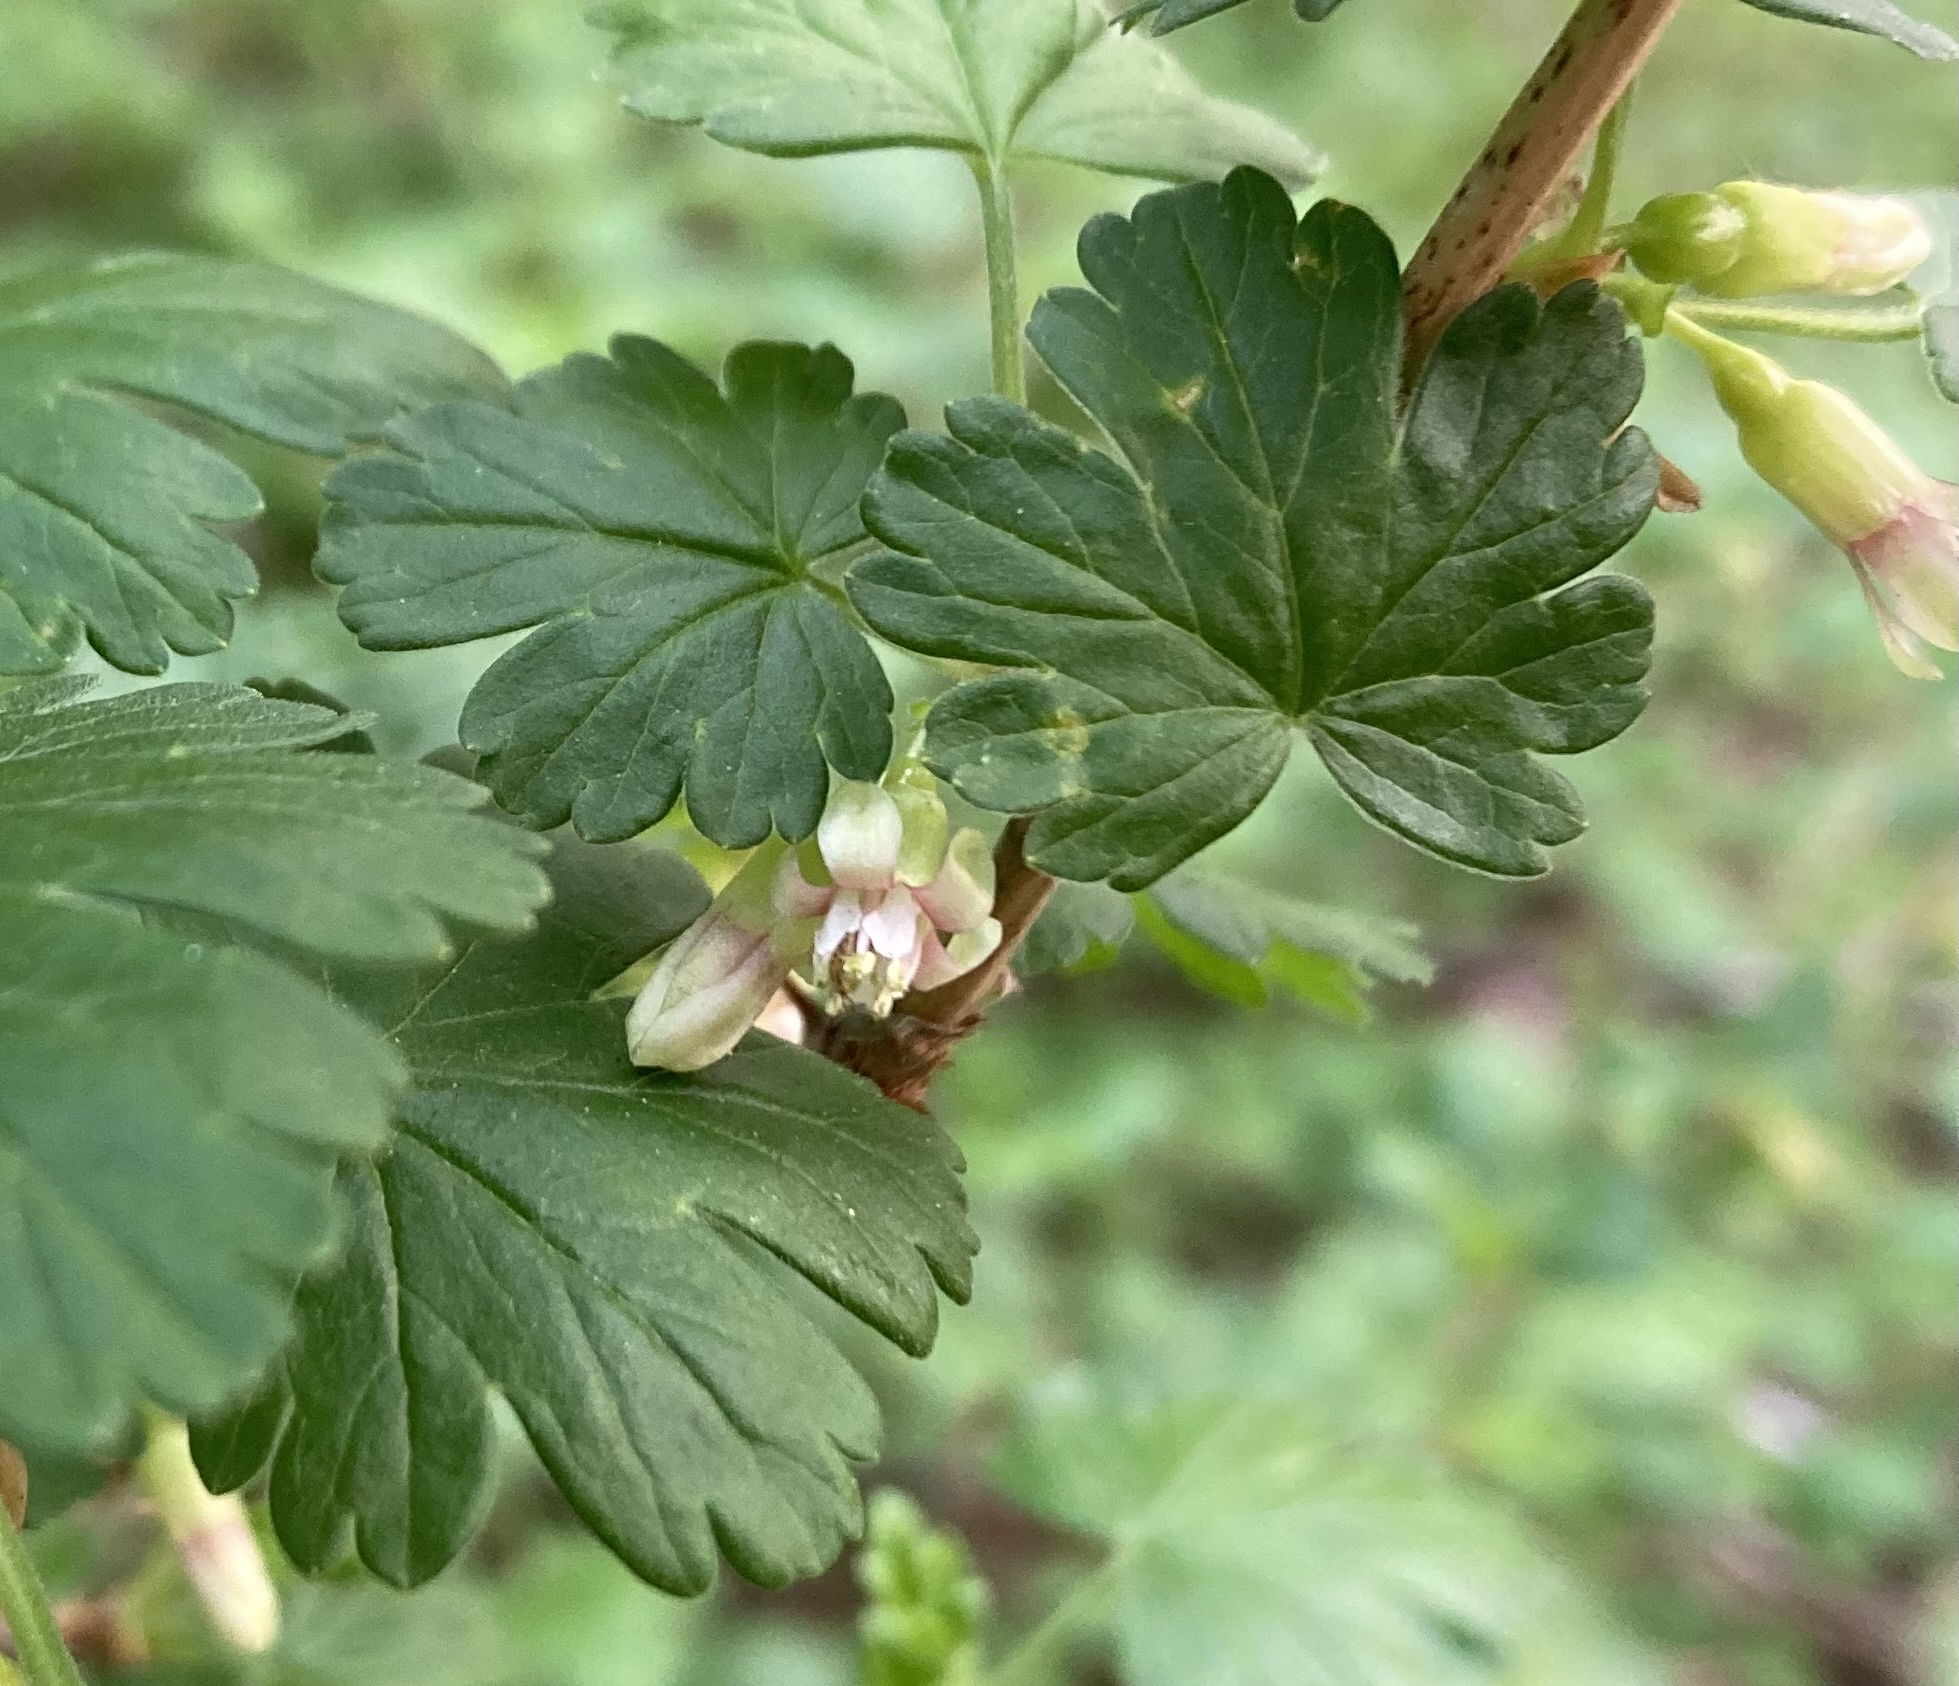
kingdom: Plantae
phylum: Tracheophyta
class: Magnoliopsida
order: Saxifragales
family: Grossulariaceae
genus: Ribes
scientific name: Ribes oxyacanthoides
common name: Northern gooseberry
